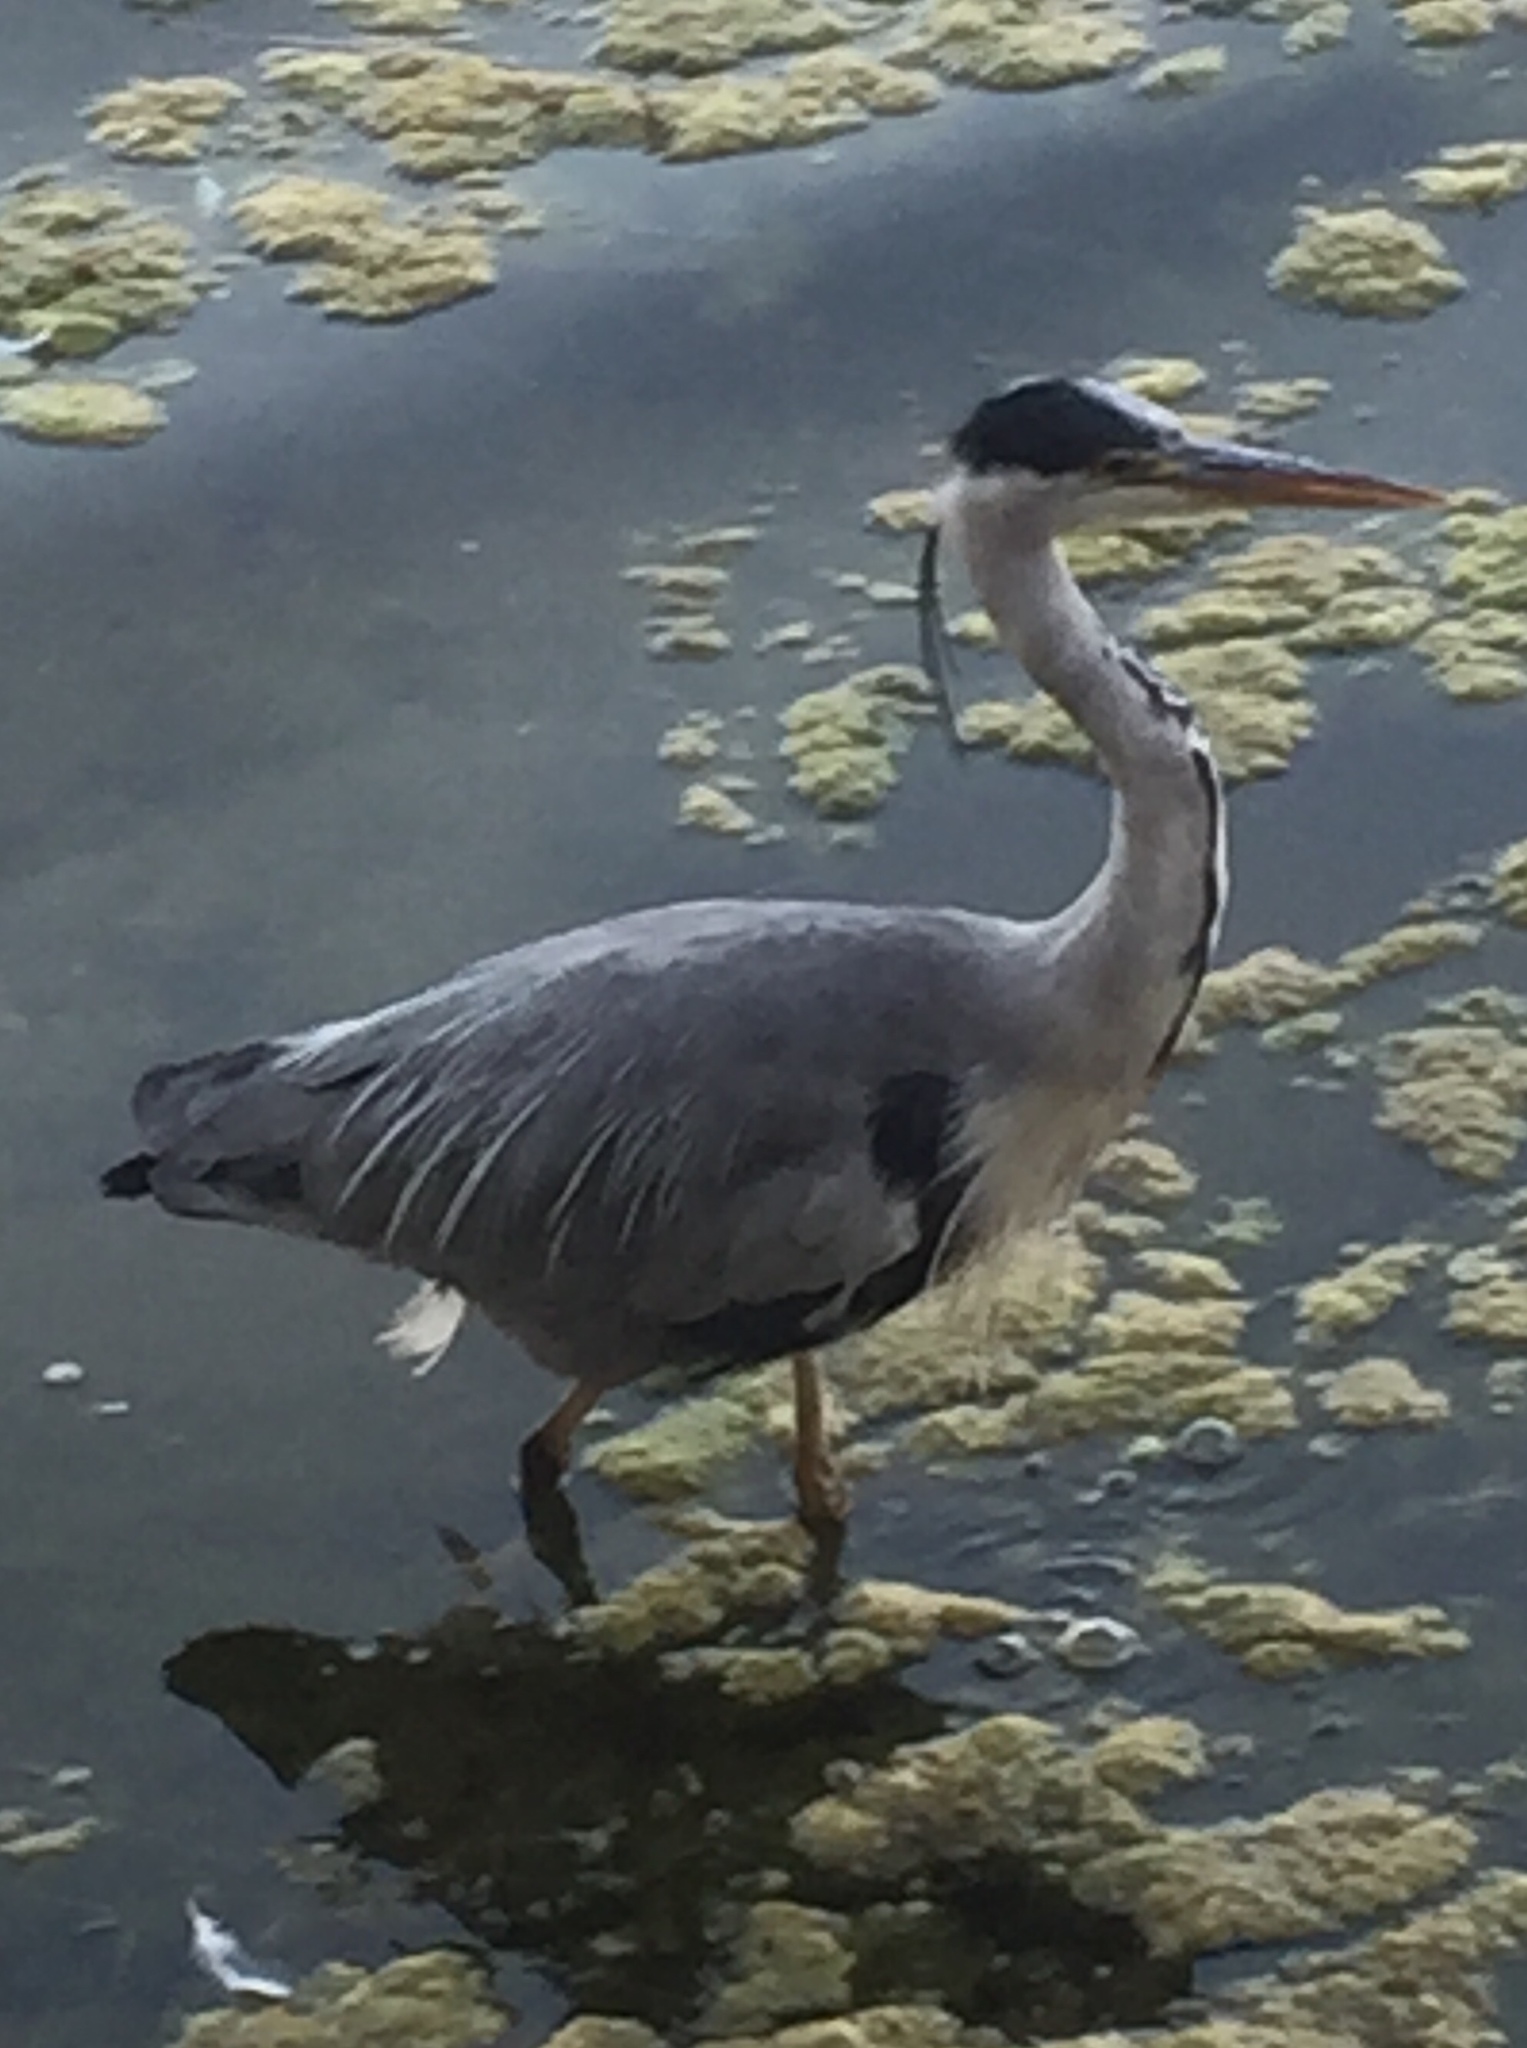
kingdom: Animalia
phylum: Chordata
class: Aves
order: Pelecaniformes
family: Ardeidae
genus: Ardea
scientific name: Ardea cinerea
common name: Grey heron
